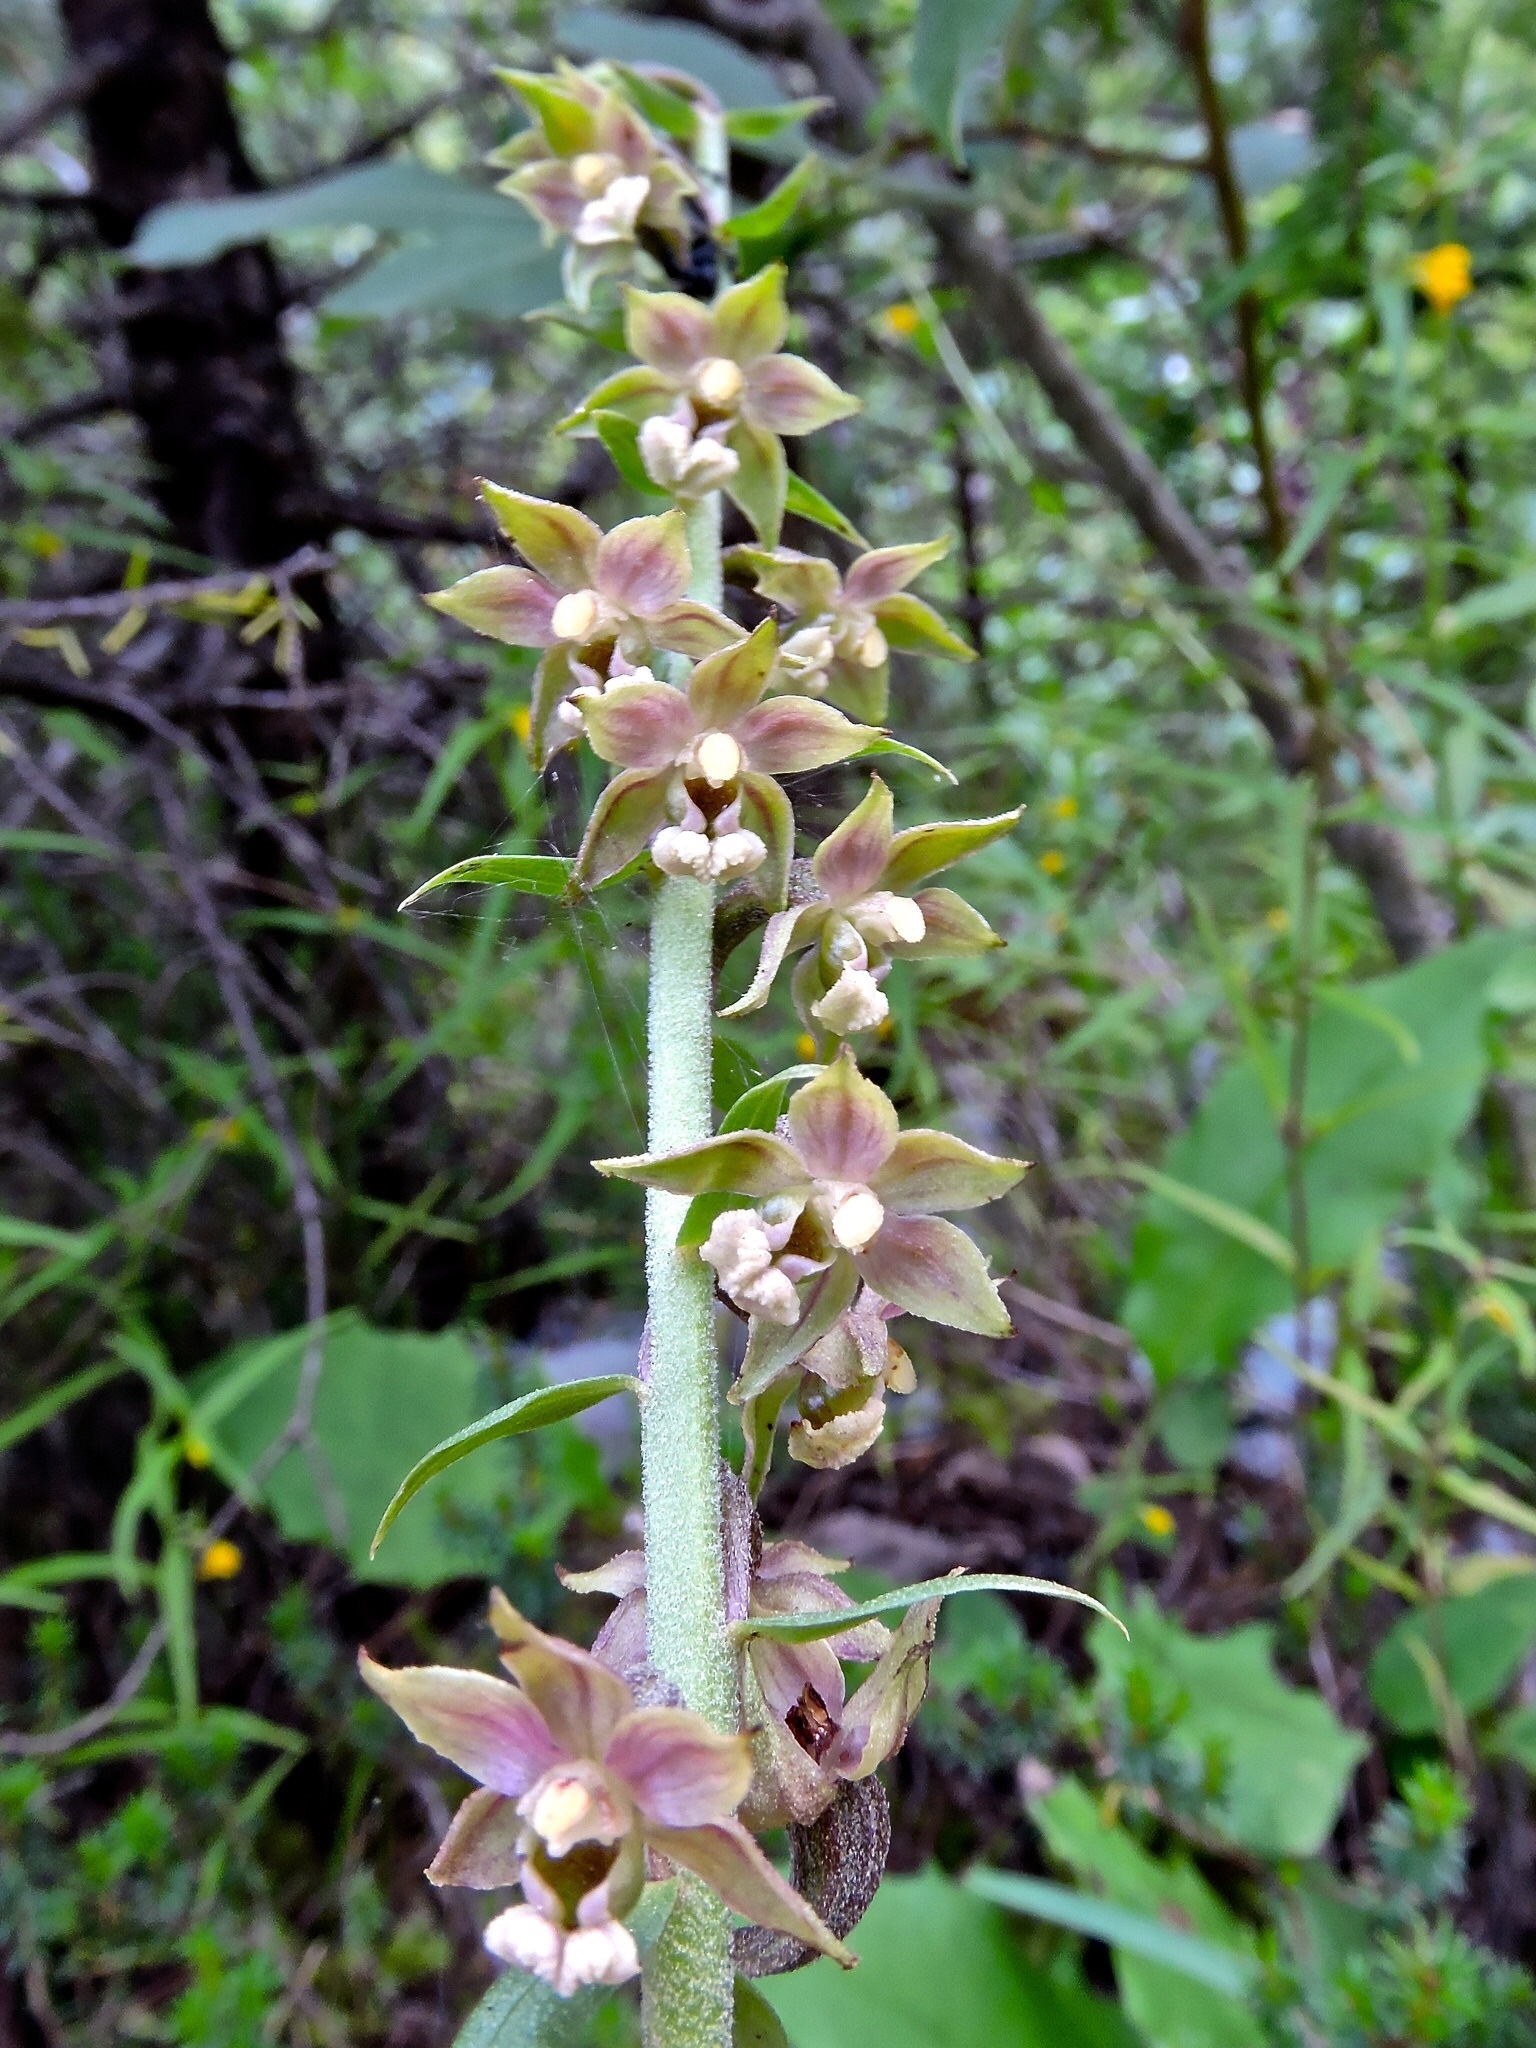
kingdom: Plantae
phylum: Tracheophyta
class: Liliopsida
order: Asparagales
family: Orchidaceae
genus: Epipactis
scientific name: Epipactis helleborine
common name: Broad-leaved helleborine
